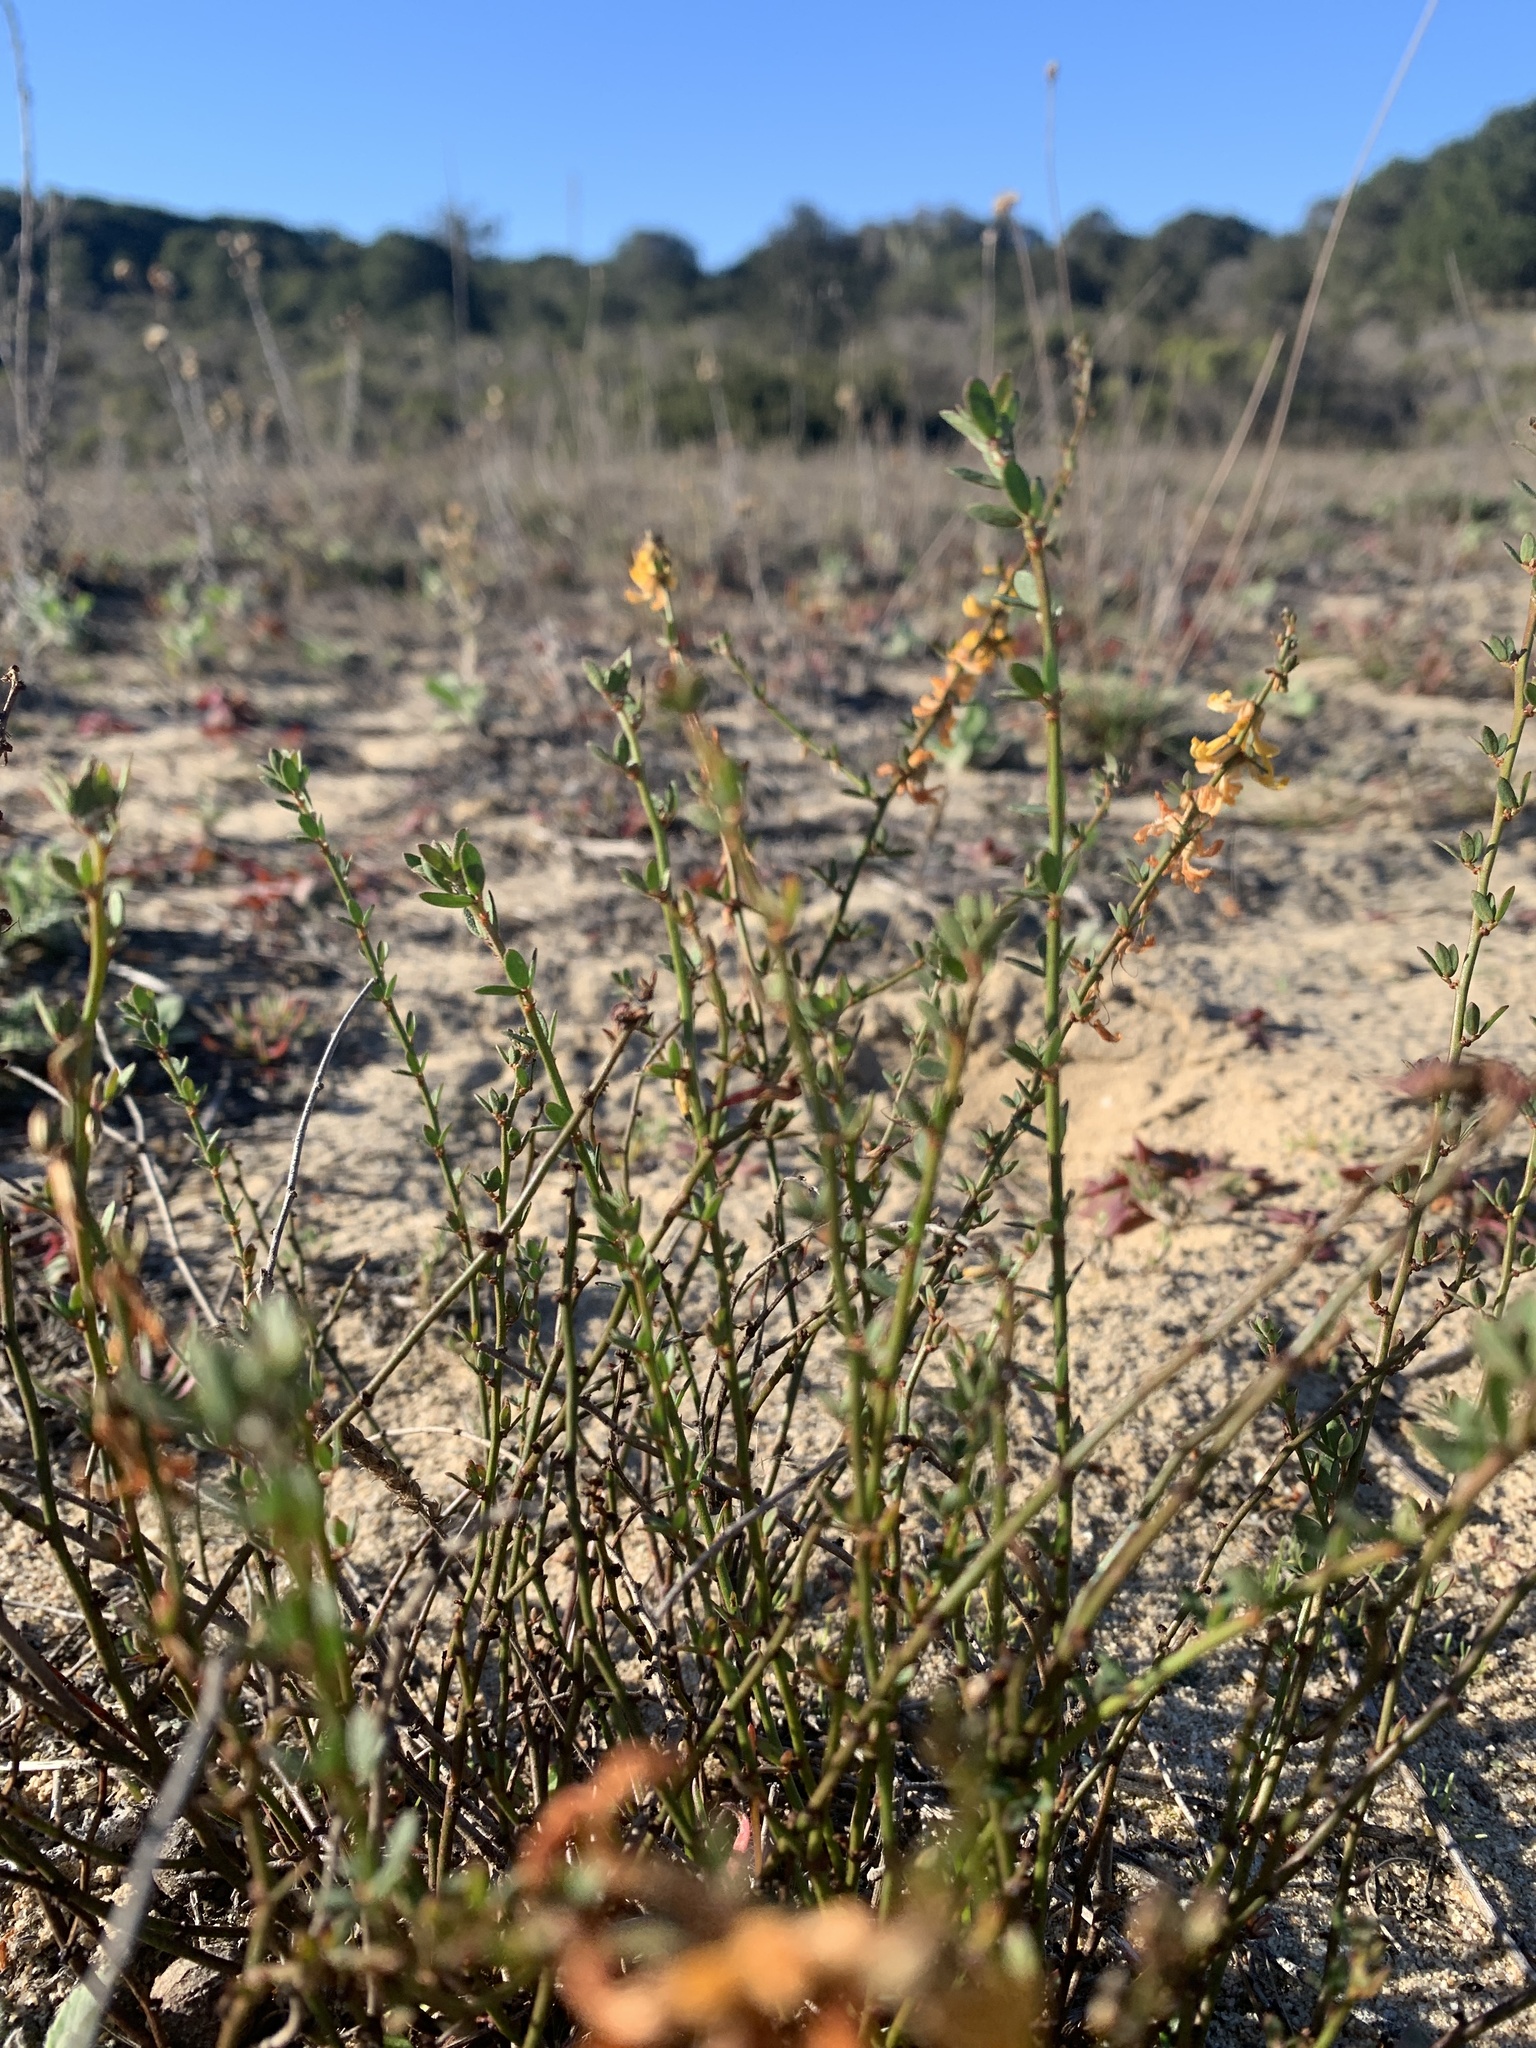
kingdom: Plantae
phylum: Tracheophyta
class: Magnoliopsida
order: Fabales
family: Fabaceae
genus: Acmispon
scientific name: Acmispon glaber
